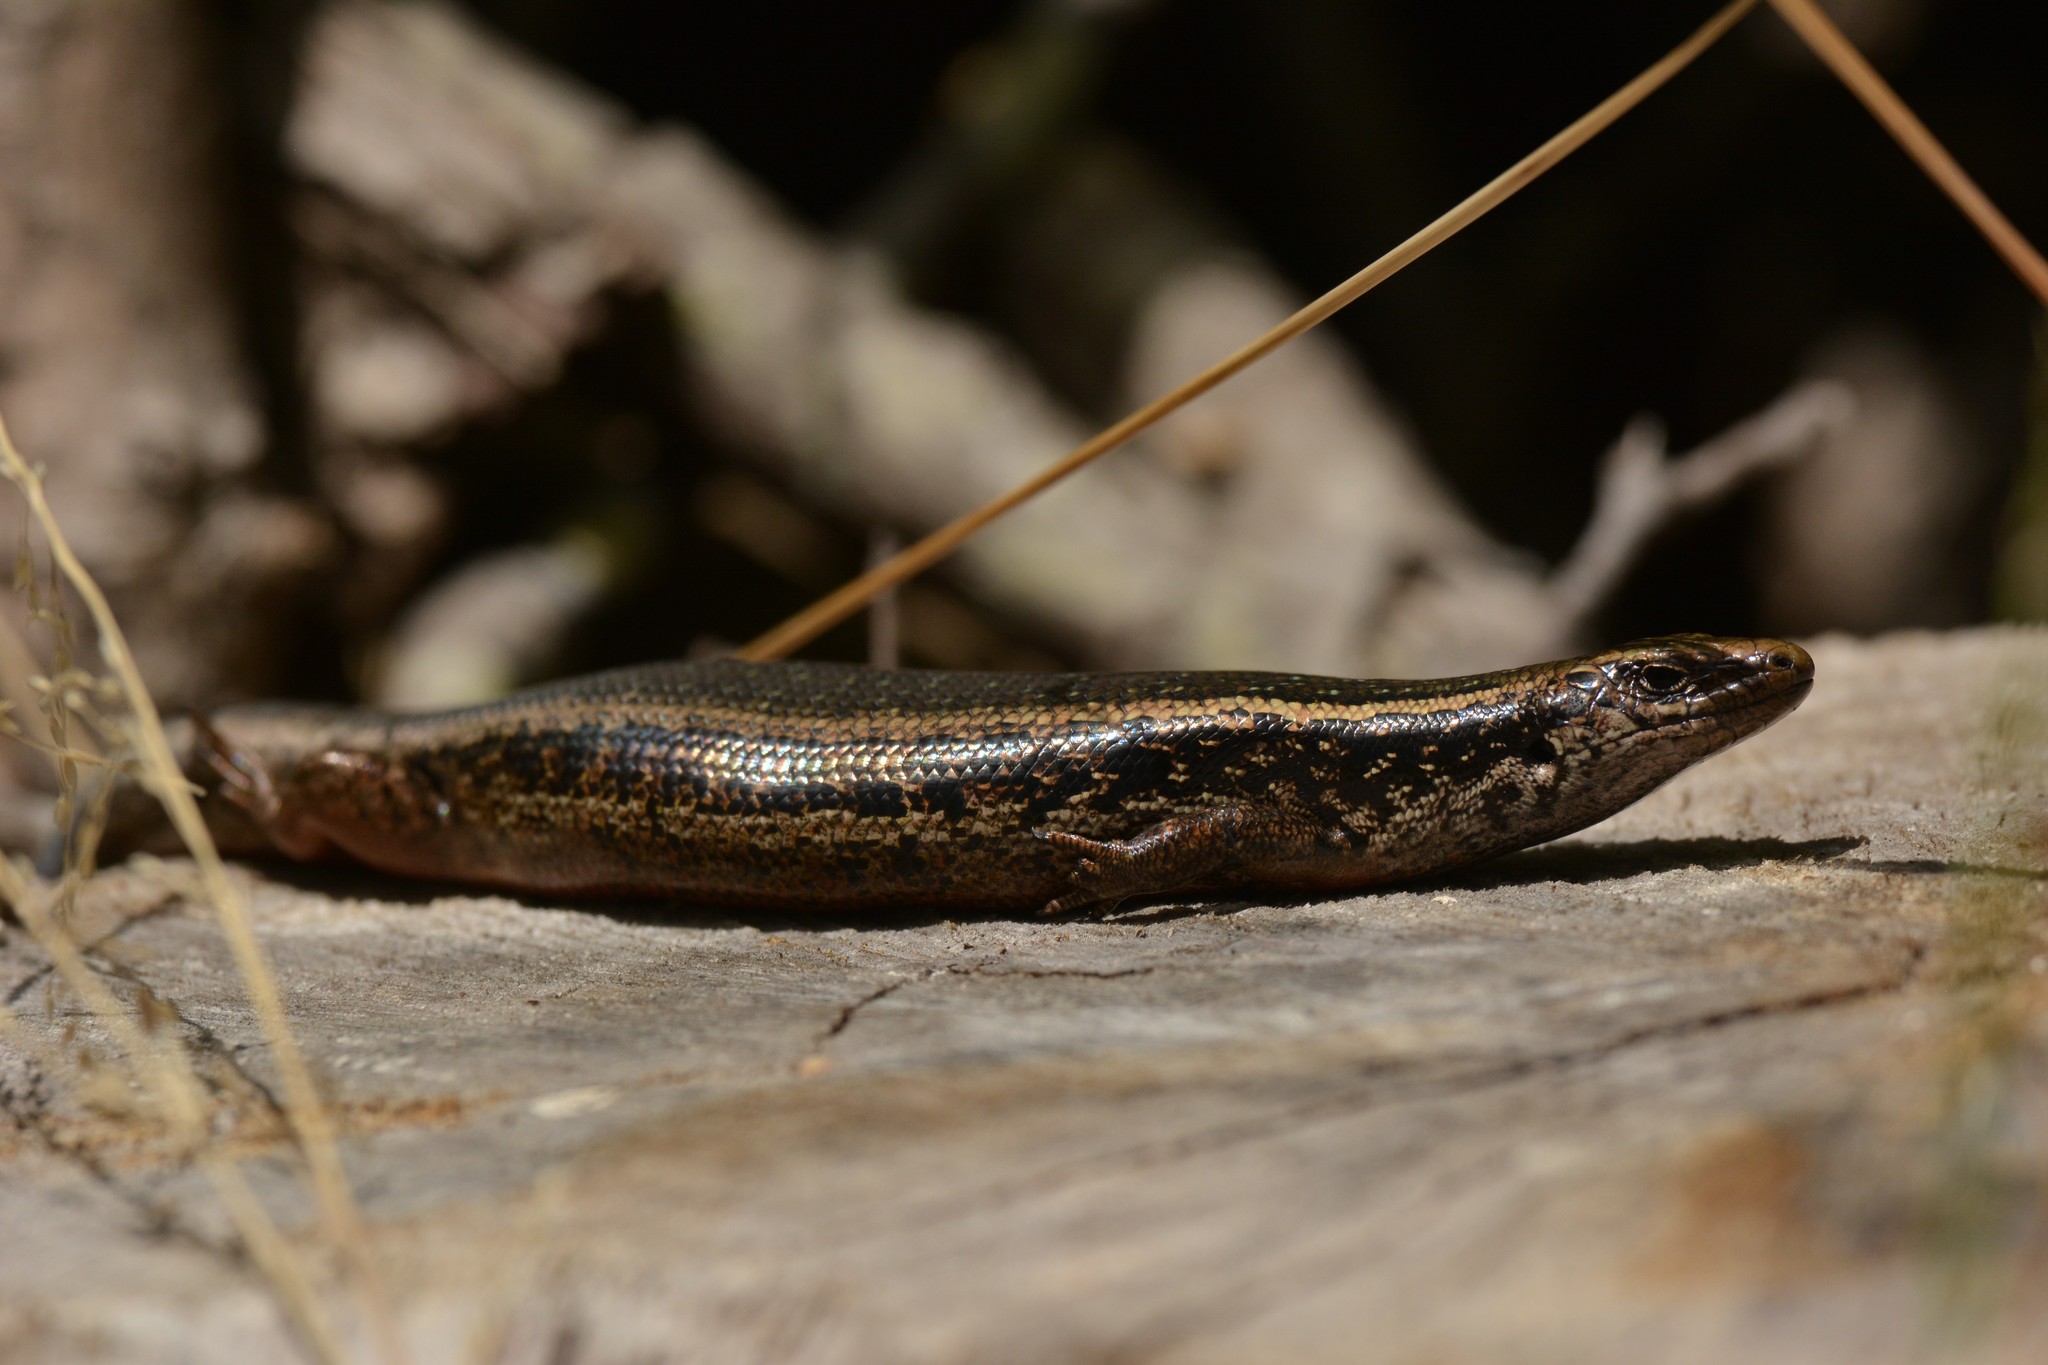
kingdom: Animalia
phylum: Chordata
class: Squamata
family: Scincidae
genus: Oligosoma
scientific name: Oligosoma kokowai
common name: Northern spotted skink
